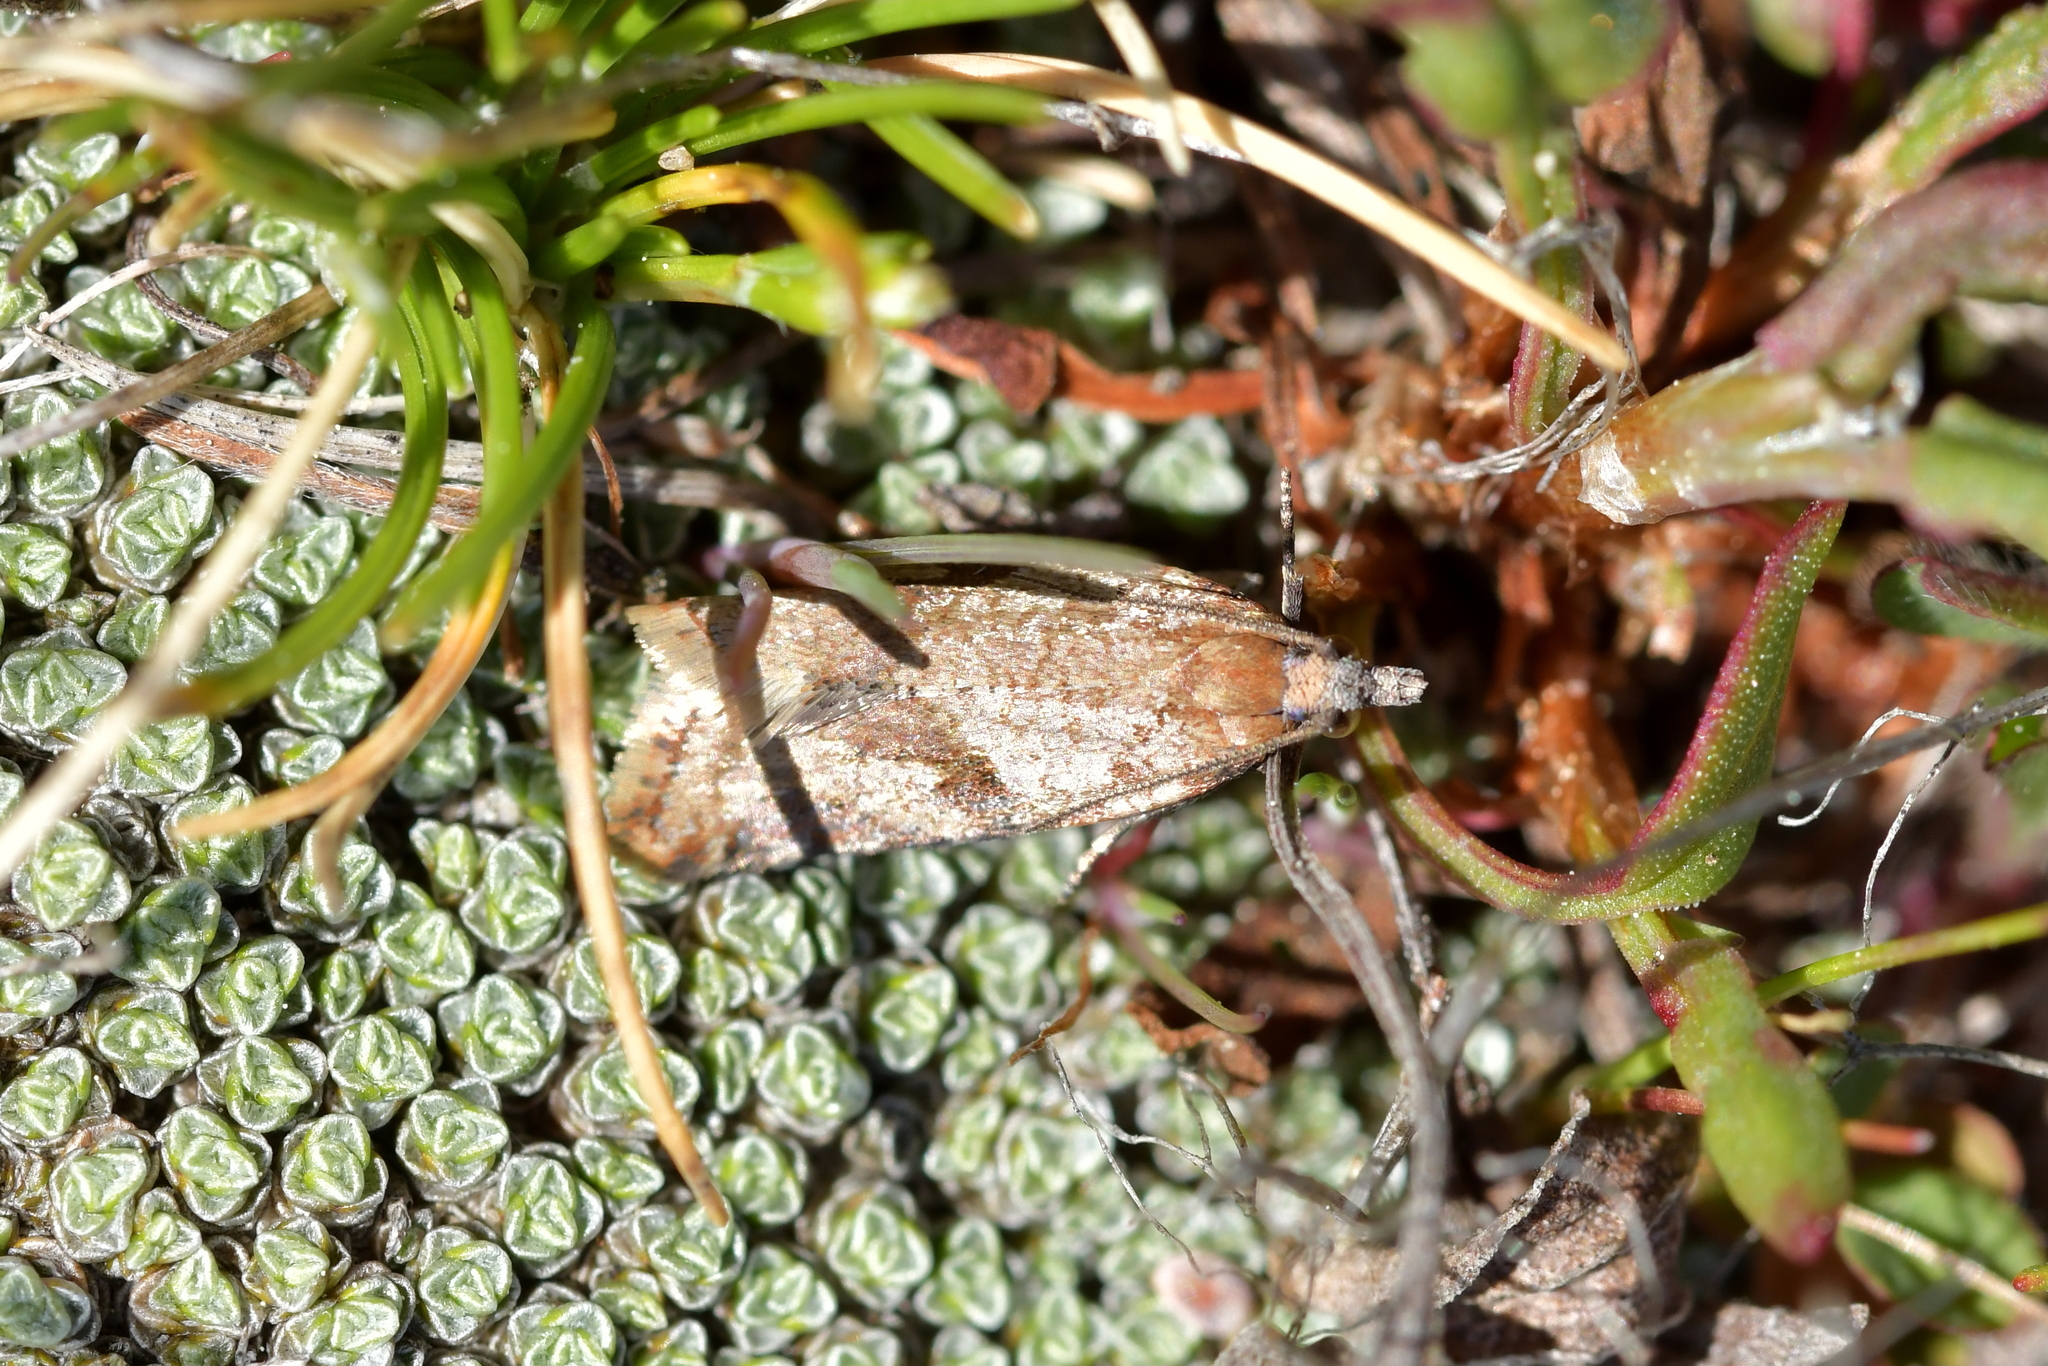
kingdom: Animalia
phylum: Arthropoda
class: Insecta
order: Lepidoptera
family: Tortricidae
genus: Capua
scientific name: Capua semiferana
